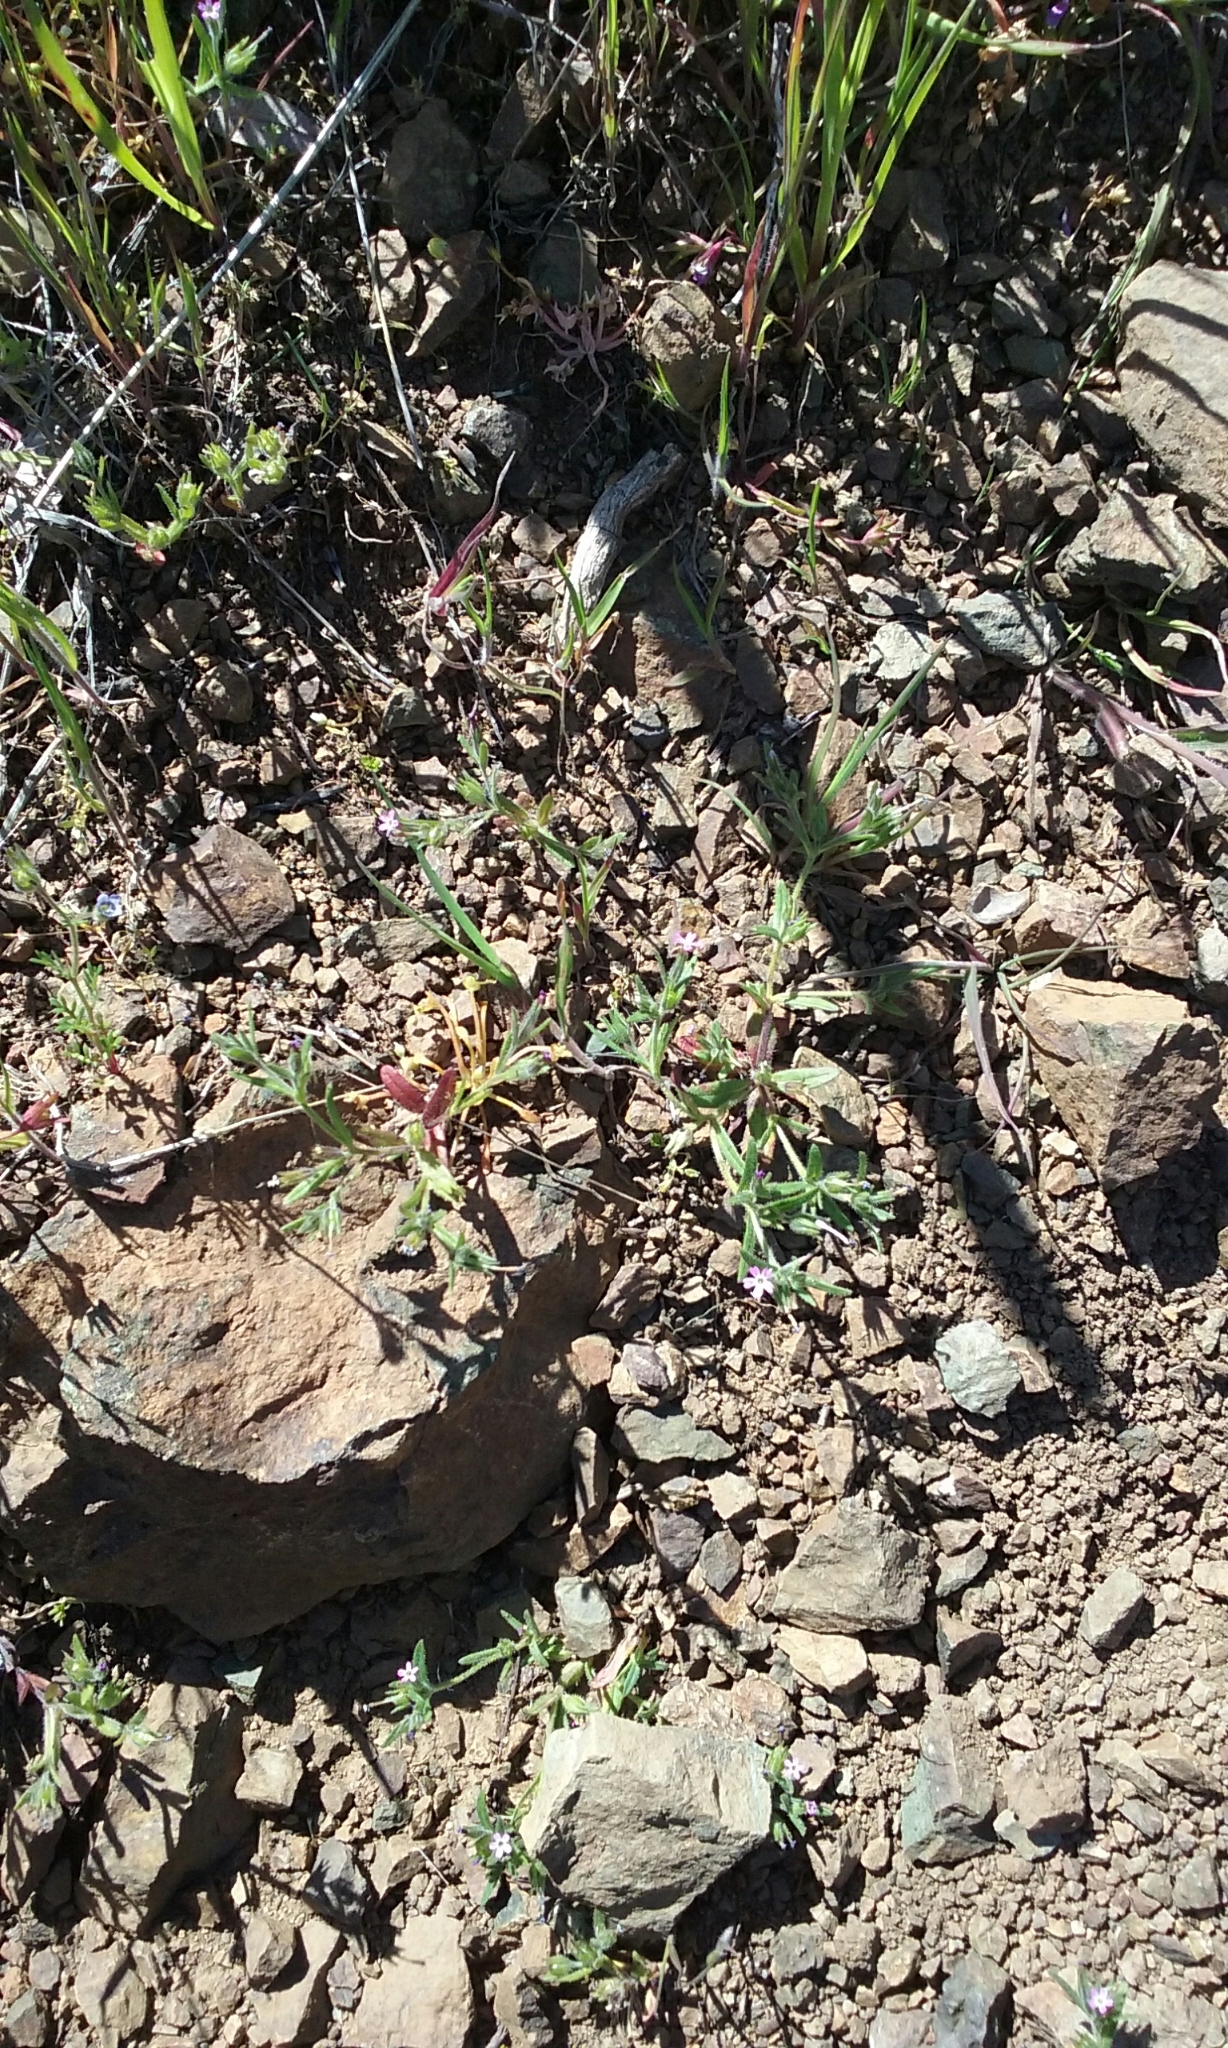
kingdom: Plantae
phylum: Tracheophyta
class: Magnoliopsida
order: Ericales
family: Polemoniaceae
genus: Phlox
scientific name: Phlox gracilis
